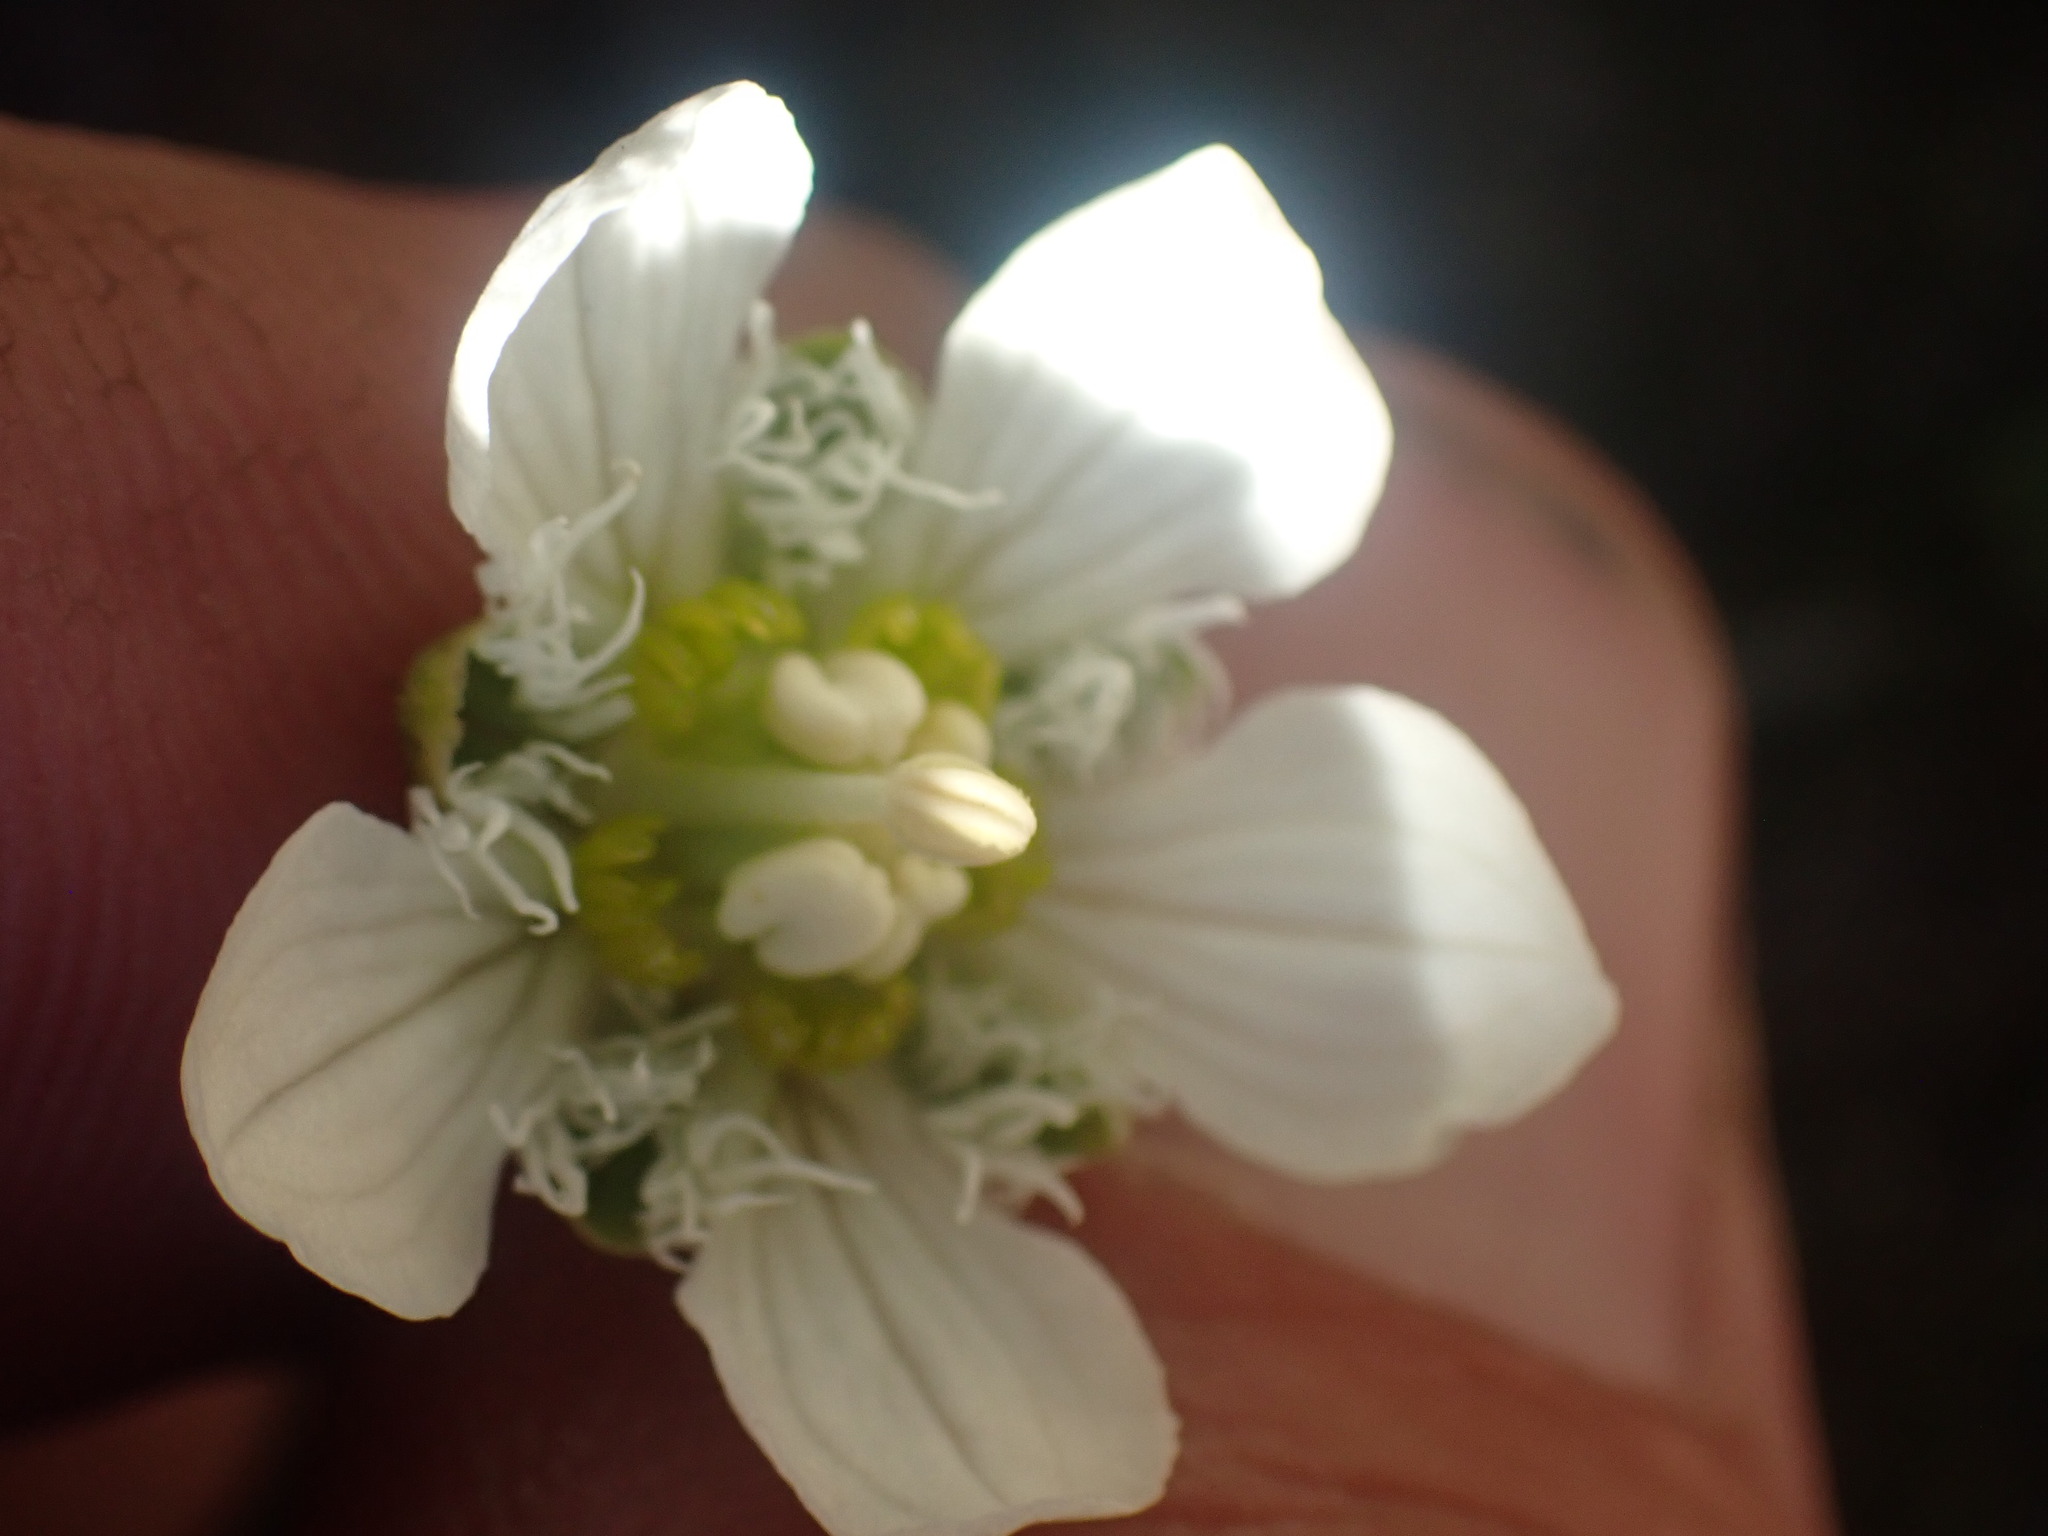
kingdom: Plantae
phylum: Tracheophyta
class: Magnoliopsida
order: Celastrales
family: Parnassiaceae
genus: Parnassia
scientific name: Parnassia fimbriata
